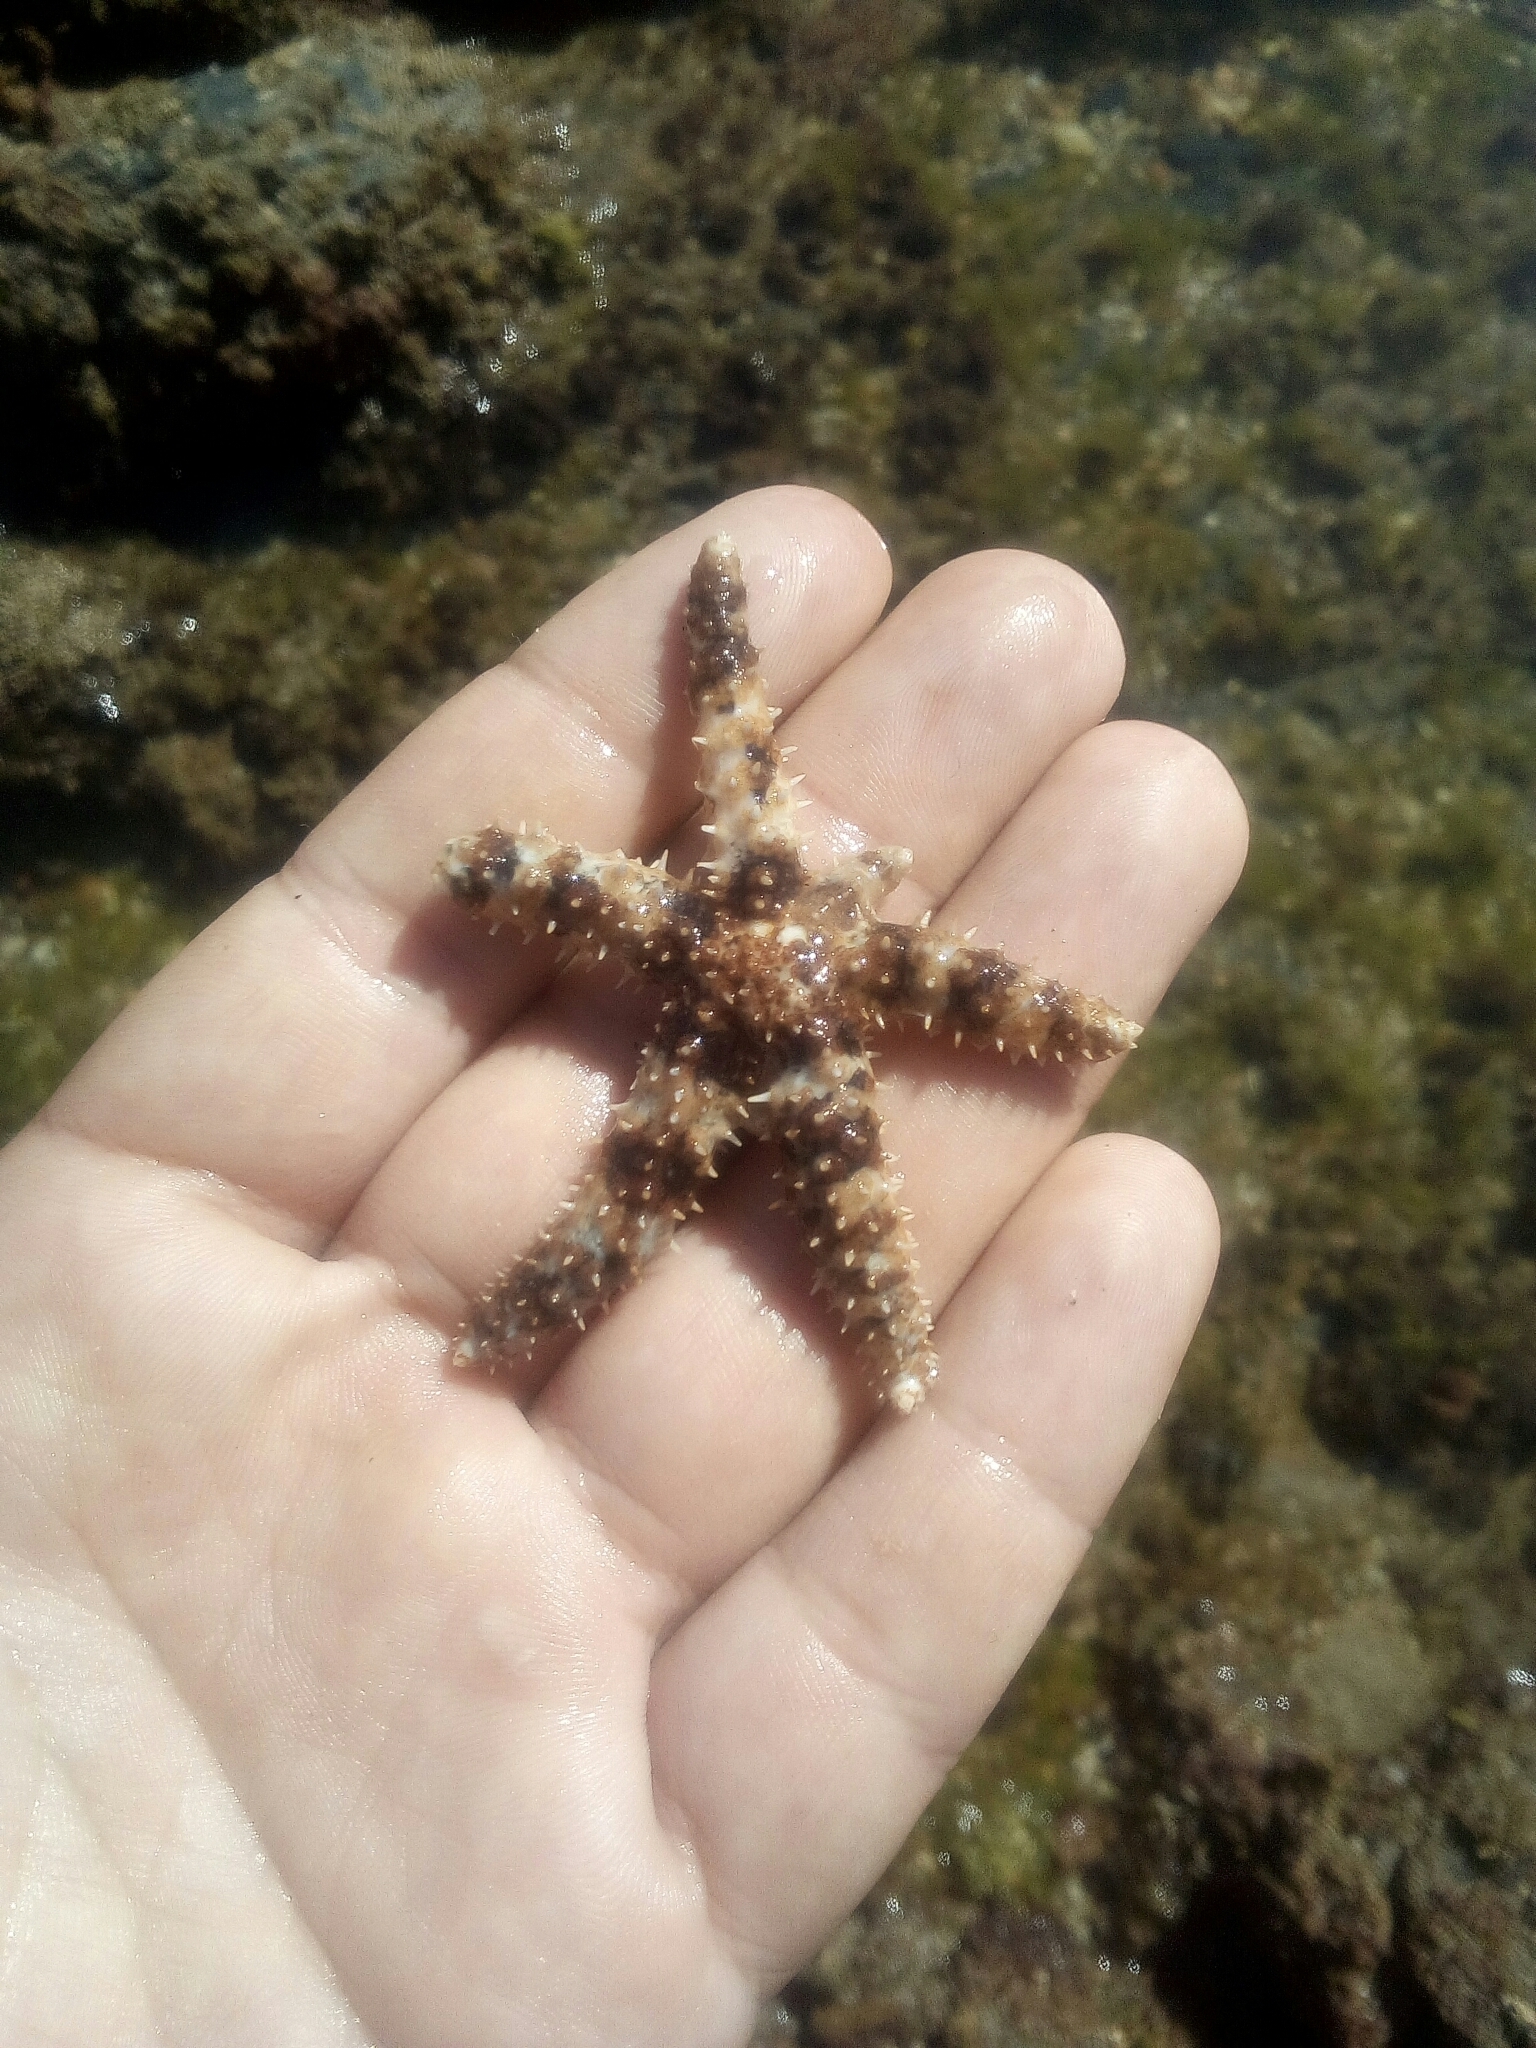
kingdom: Animalia
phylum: Echinodermata
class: Asteroidea
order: Forcipulatida
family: Asteriidae
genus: Coscinasterias
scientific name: Coscinasterias tenuispina
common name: Blue spiny starfish
